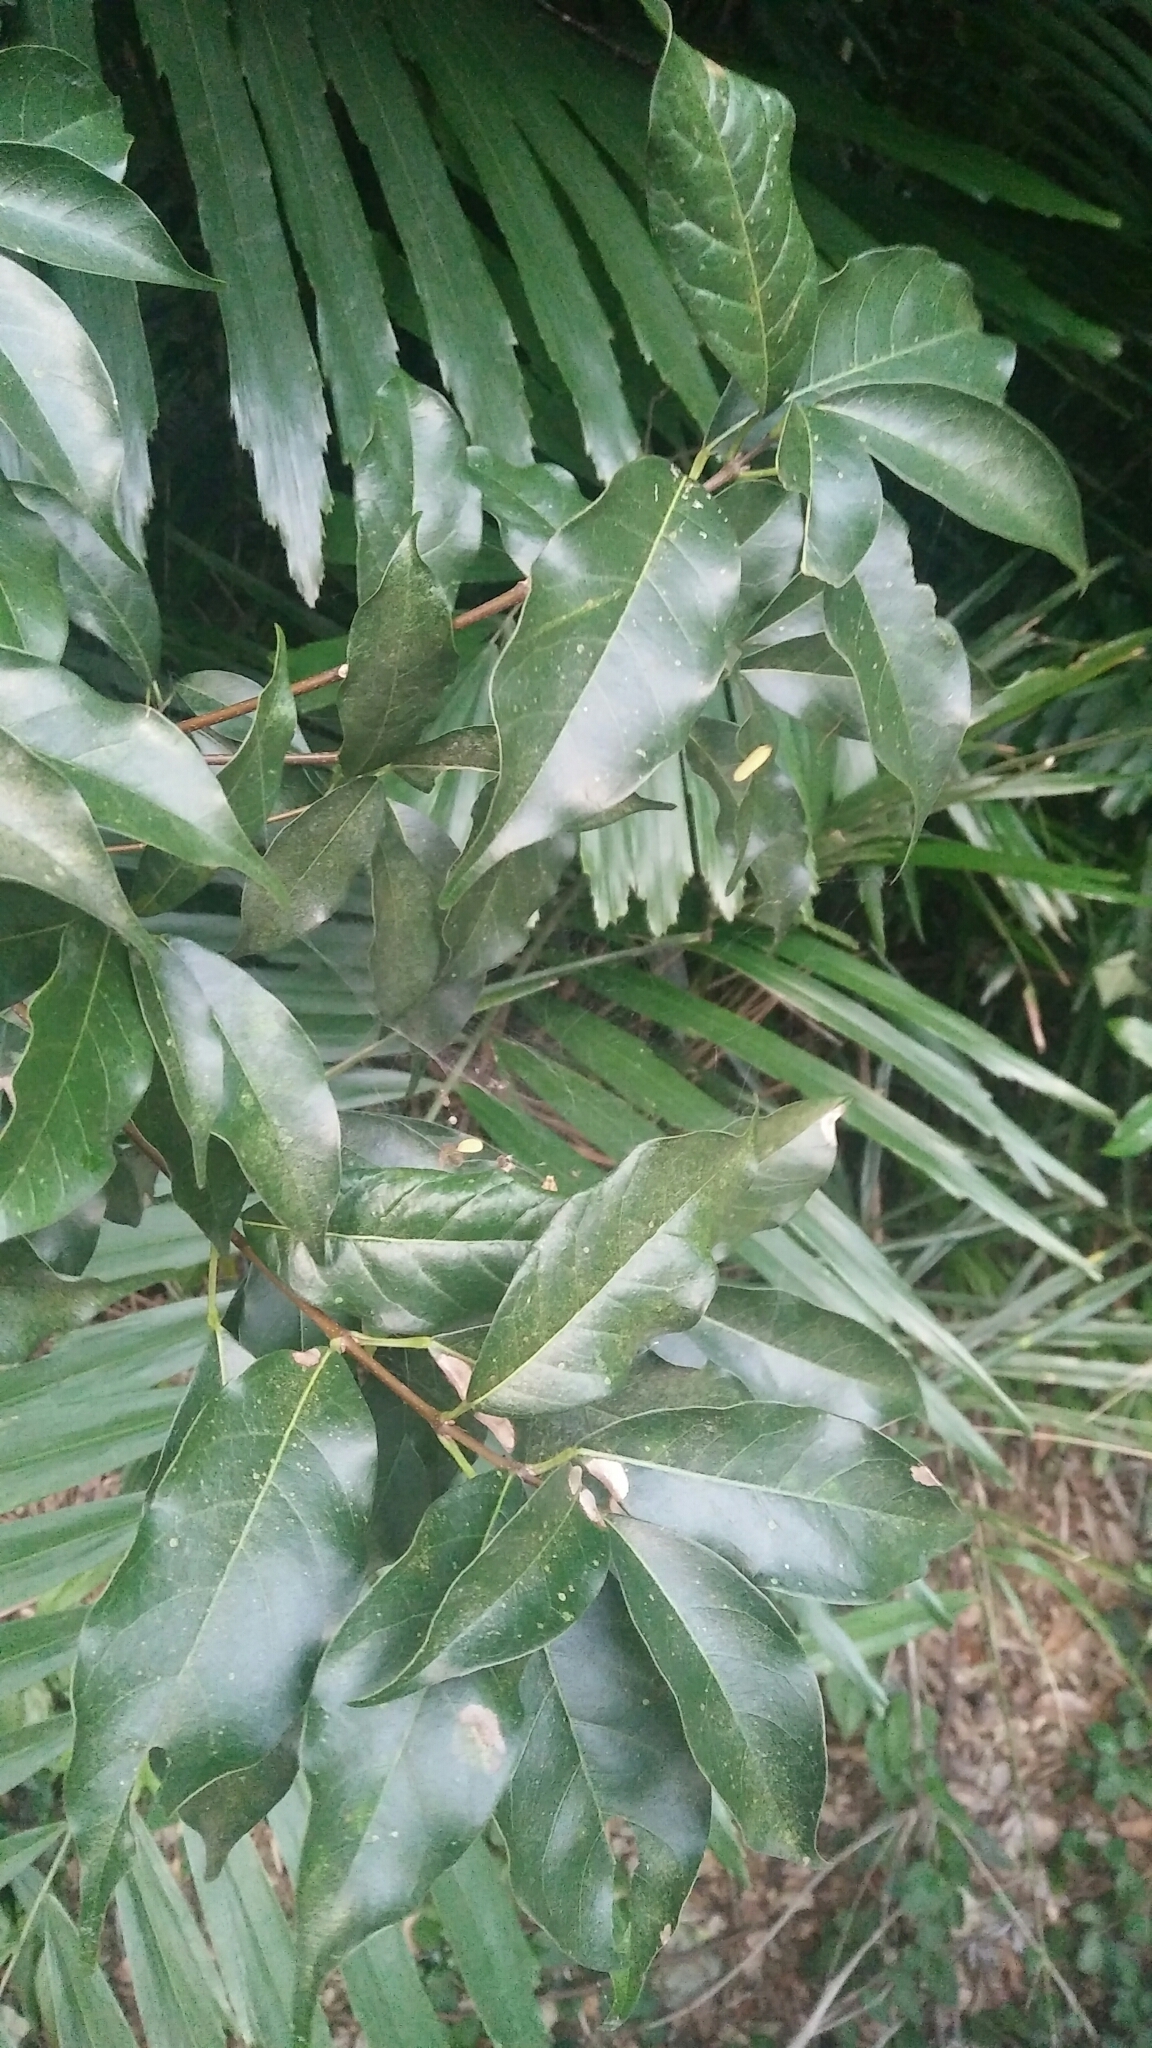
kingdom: Plantae
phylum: Tracheophyta
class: Magnoliopsida
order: Sapindales
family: Sapindaceae
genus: Acer
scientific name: Acer oblongum
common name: Himalayan maple
